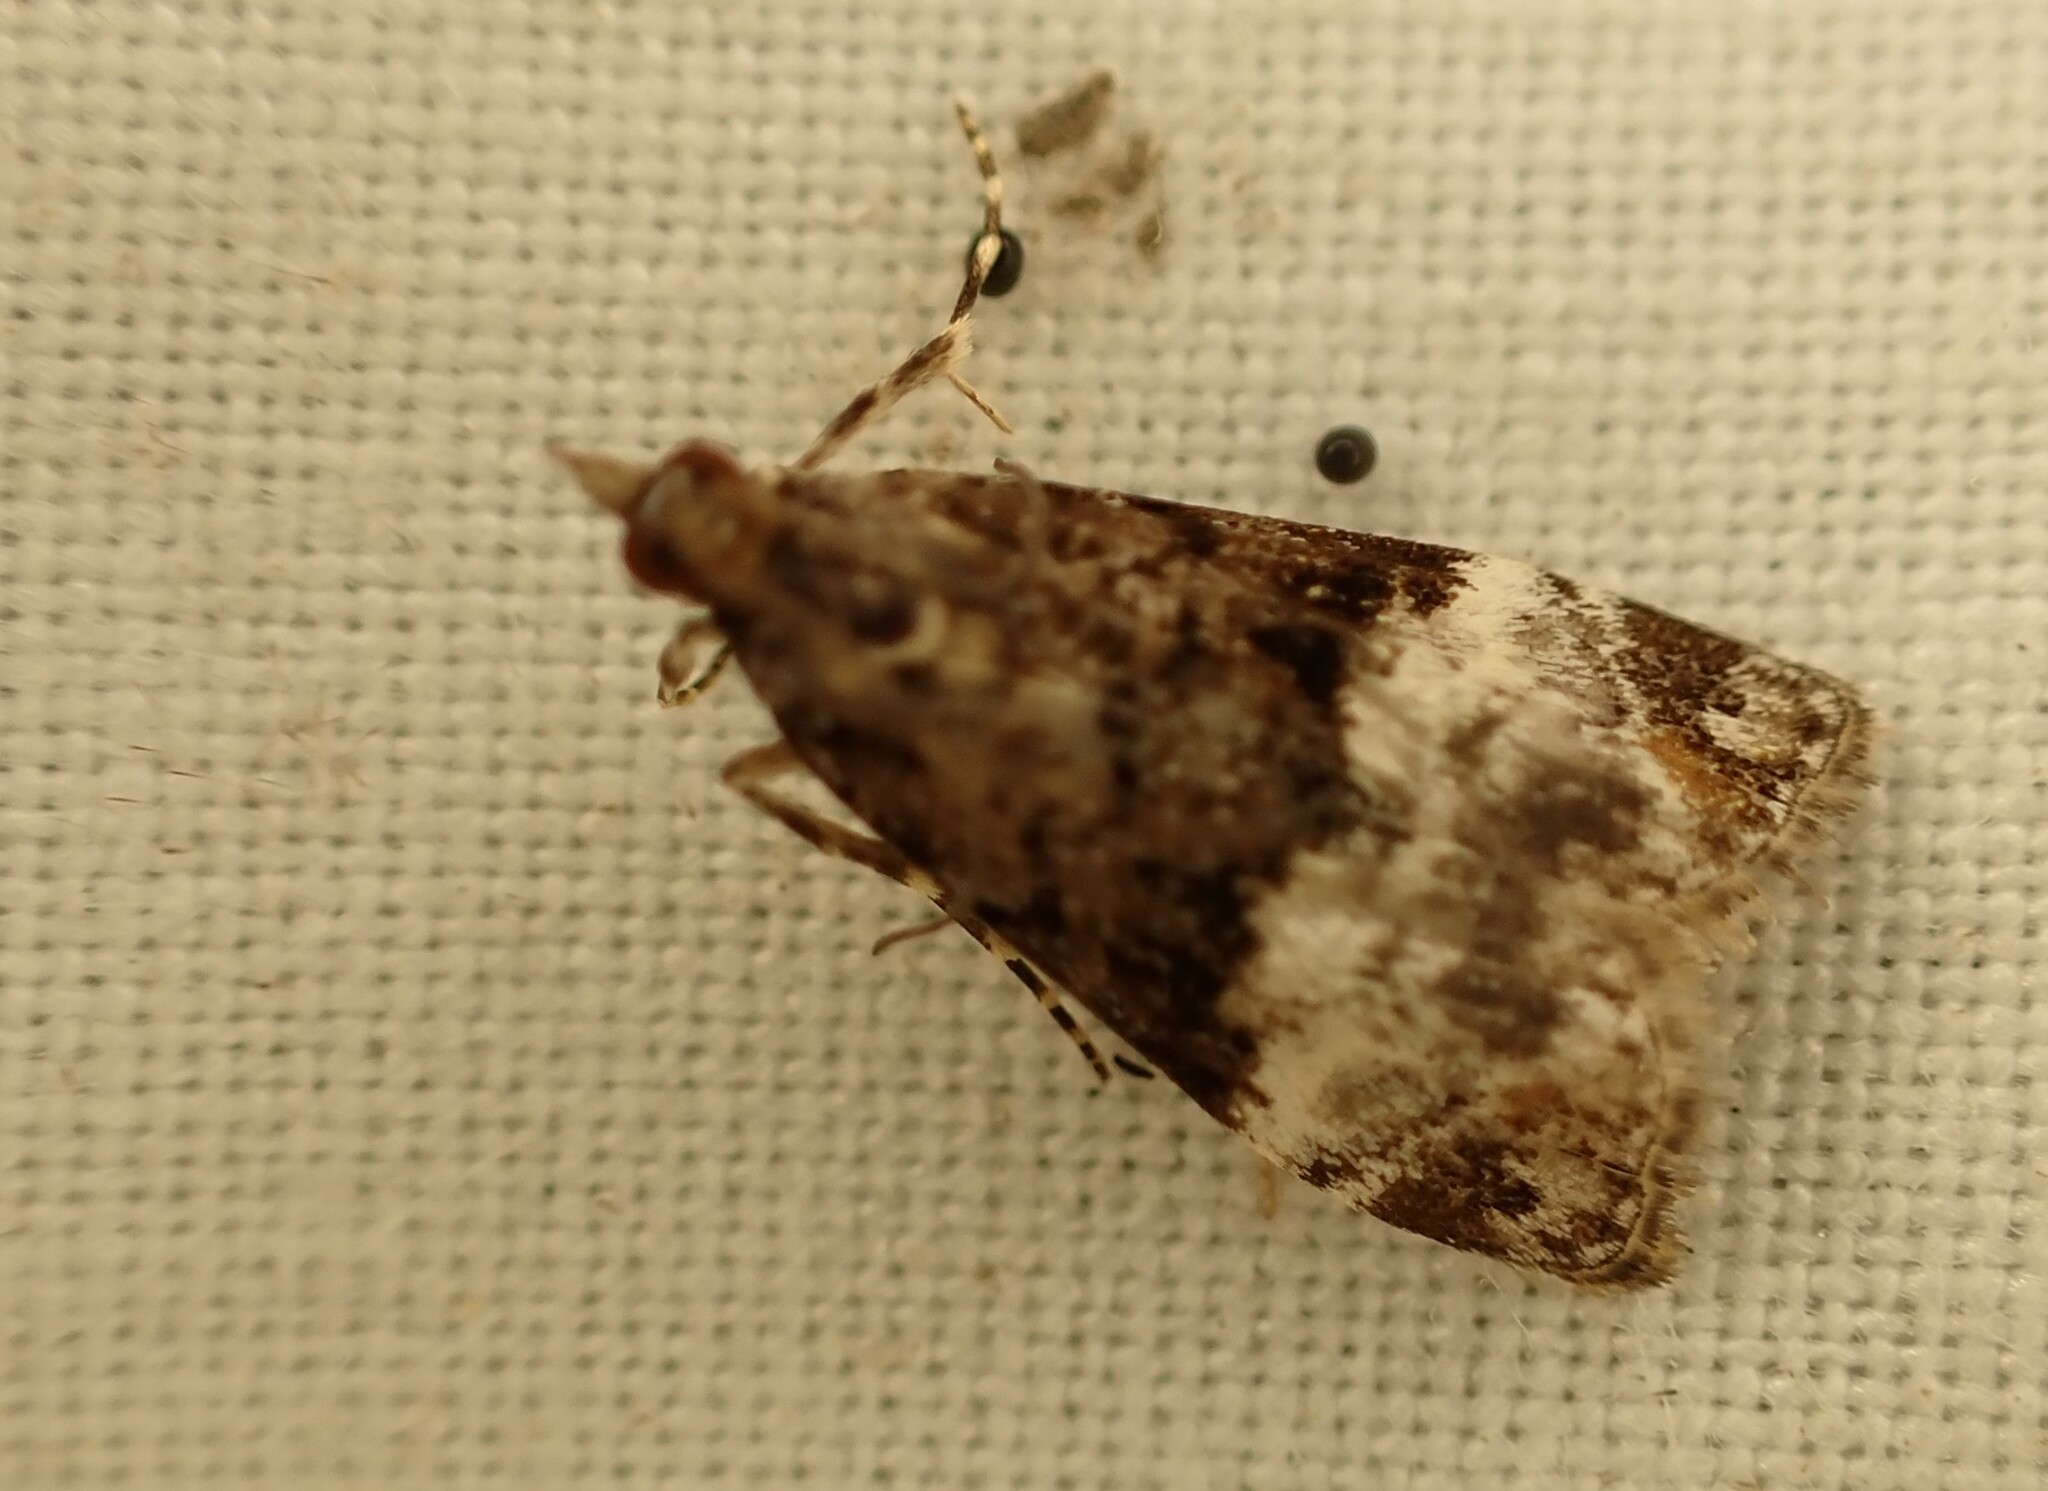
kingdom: Animalia
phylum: Arthropoda
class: Insecta
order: Lepidoptera
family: Crambidae
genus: Scoparia
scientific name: Scoparia minusculalis
